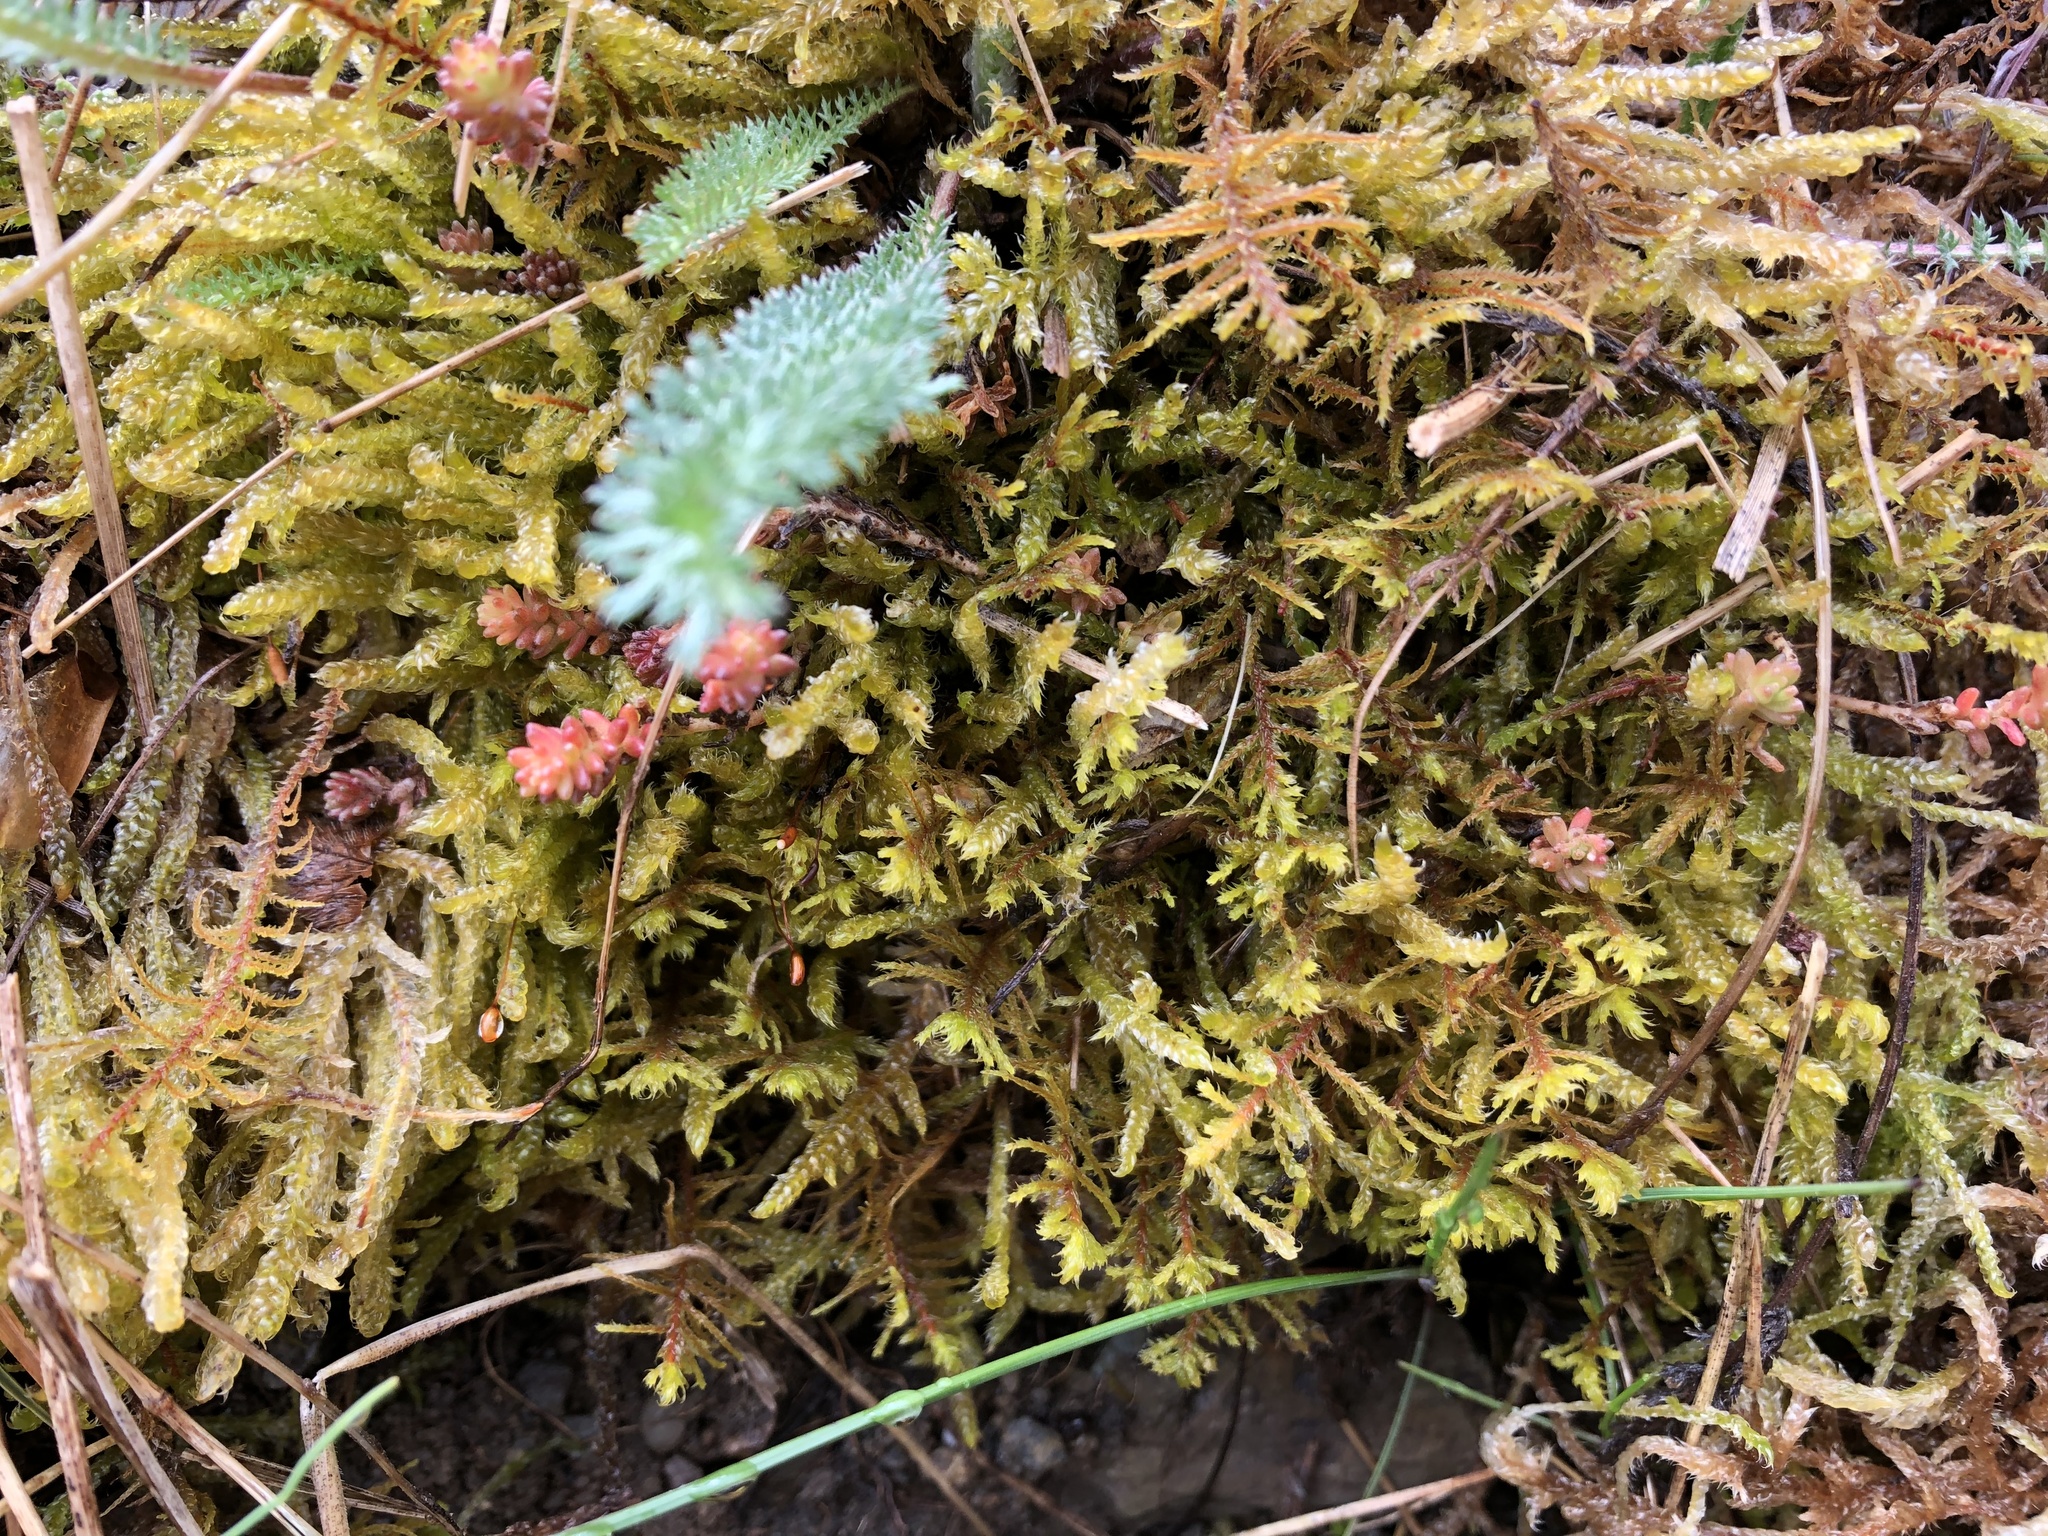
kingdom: Plantae
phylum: Bryophyta
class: Bryopsida
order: Hypnales
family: Thuidiaceae
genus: Abietinella
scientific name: Abietinella abietina
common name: Wiry fern moss
